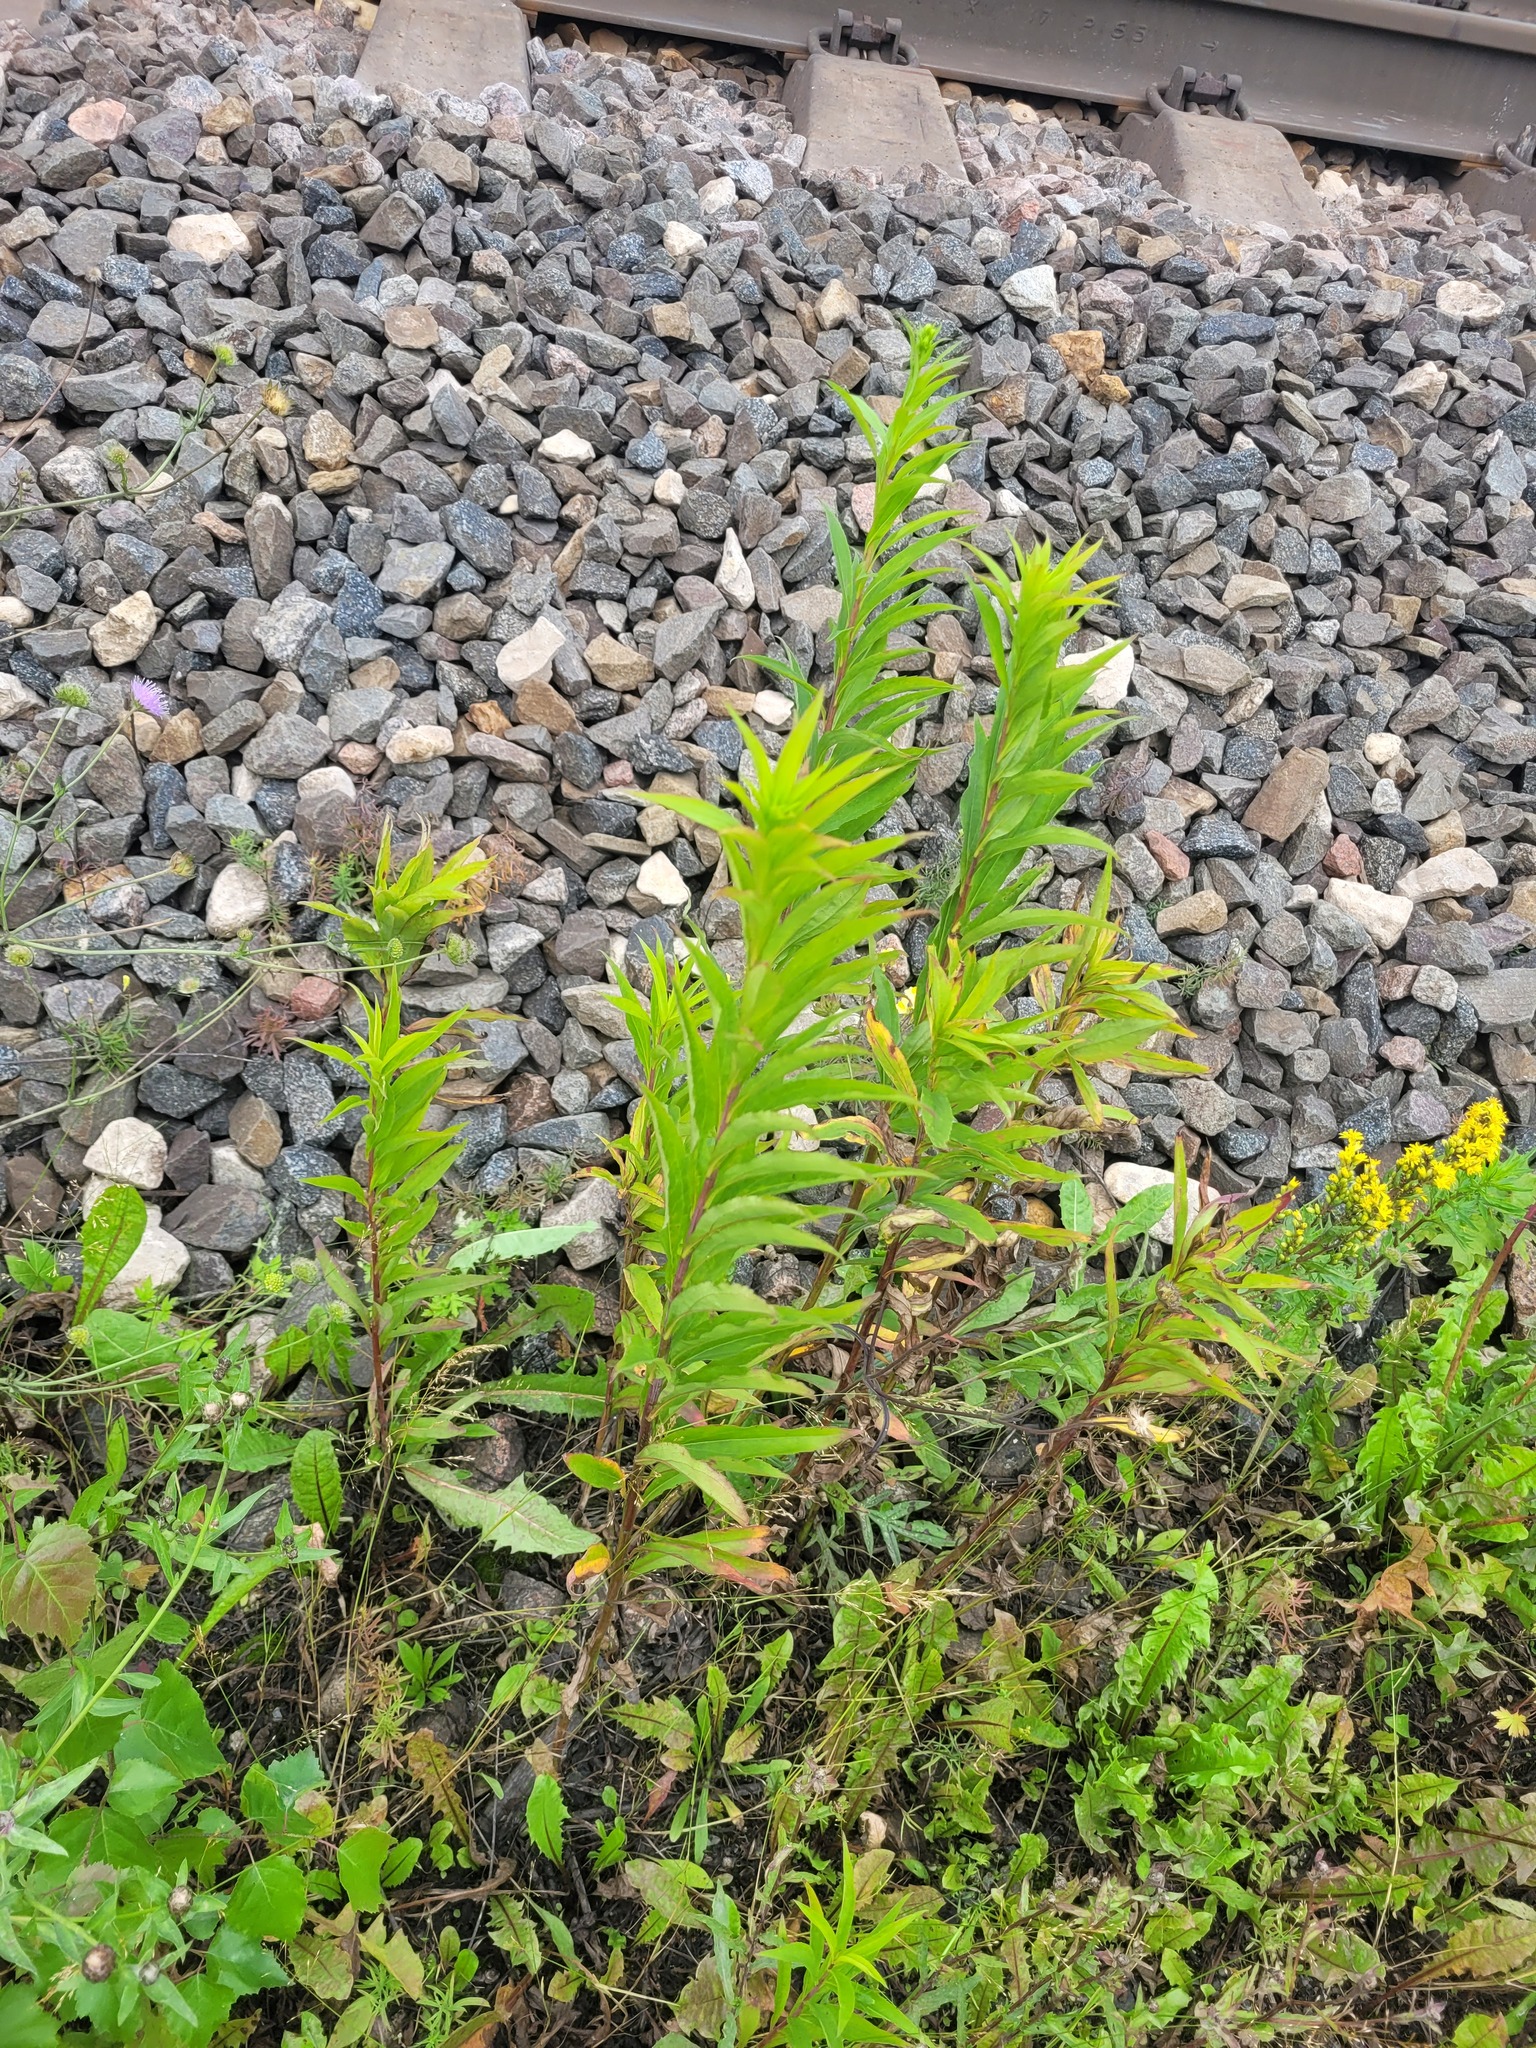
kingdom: Plantae
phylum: Tracheophyta
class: Magnoliopsida
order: Asterales
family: Asteraceae
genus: Solidago
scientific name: Solidago gigantea
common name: Giant goldenrod
